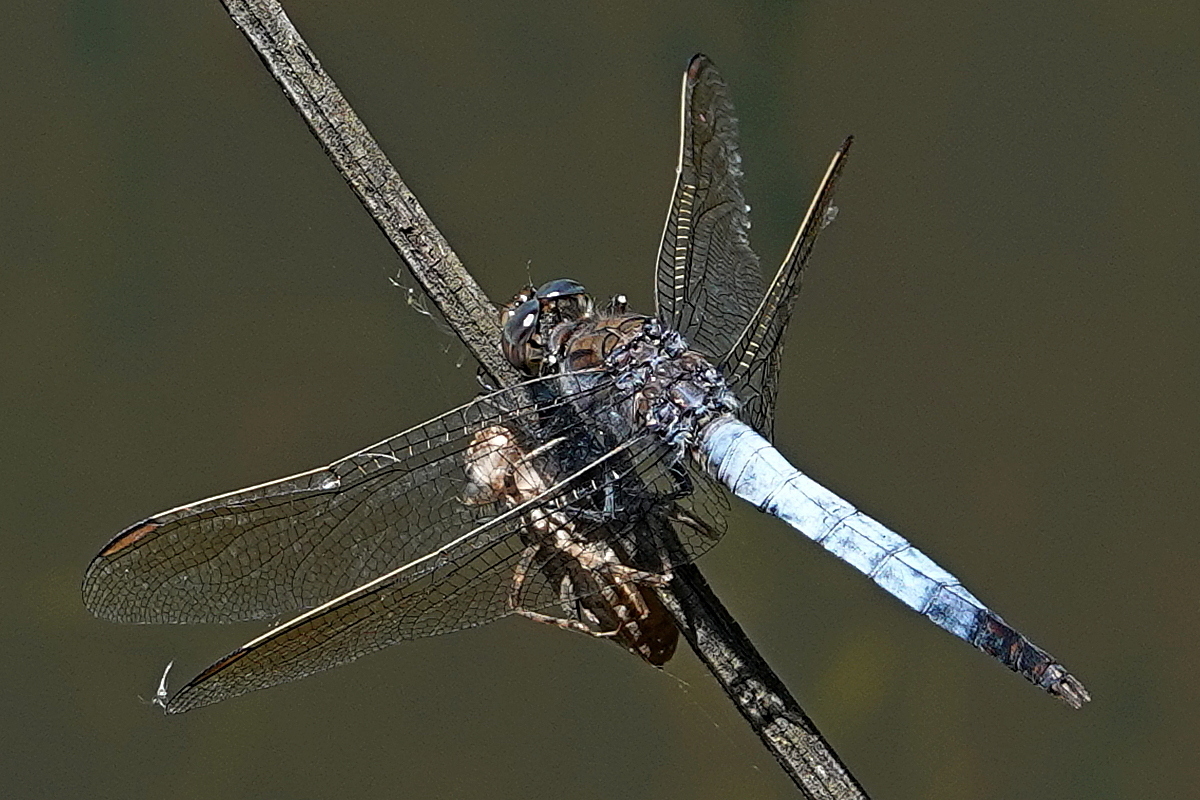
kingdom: Animalia
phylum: Arthropoda
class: Insecta
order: Odonata
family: Libellulidae
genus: Orthetrum
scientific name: Orthetrum caledonicum
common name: Blue skimmer
